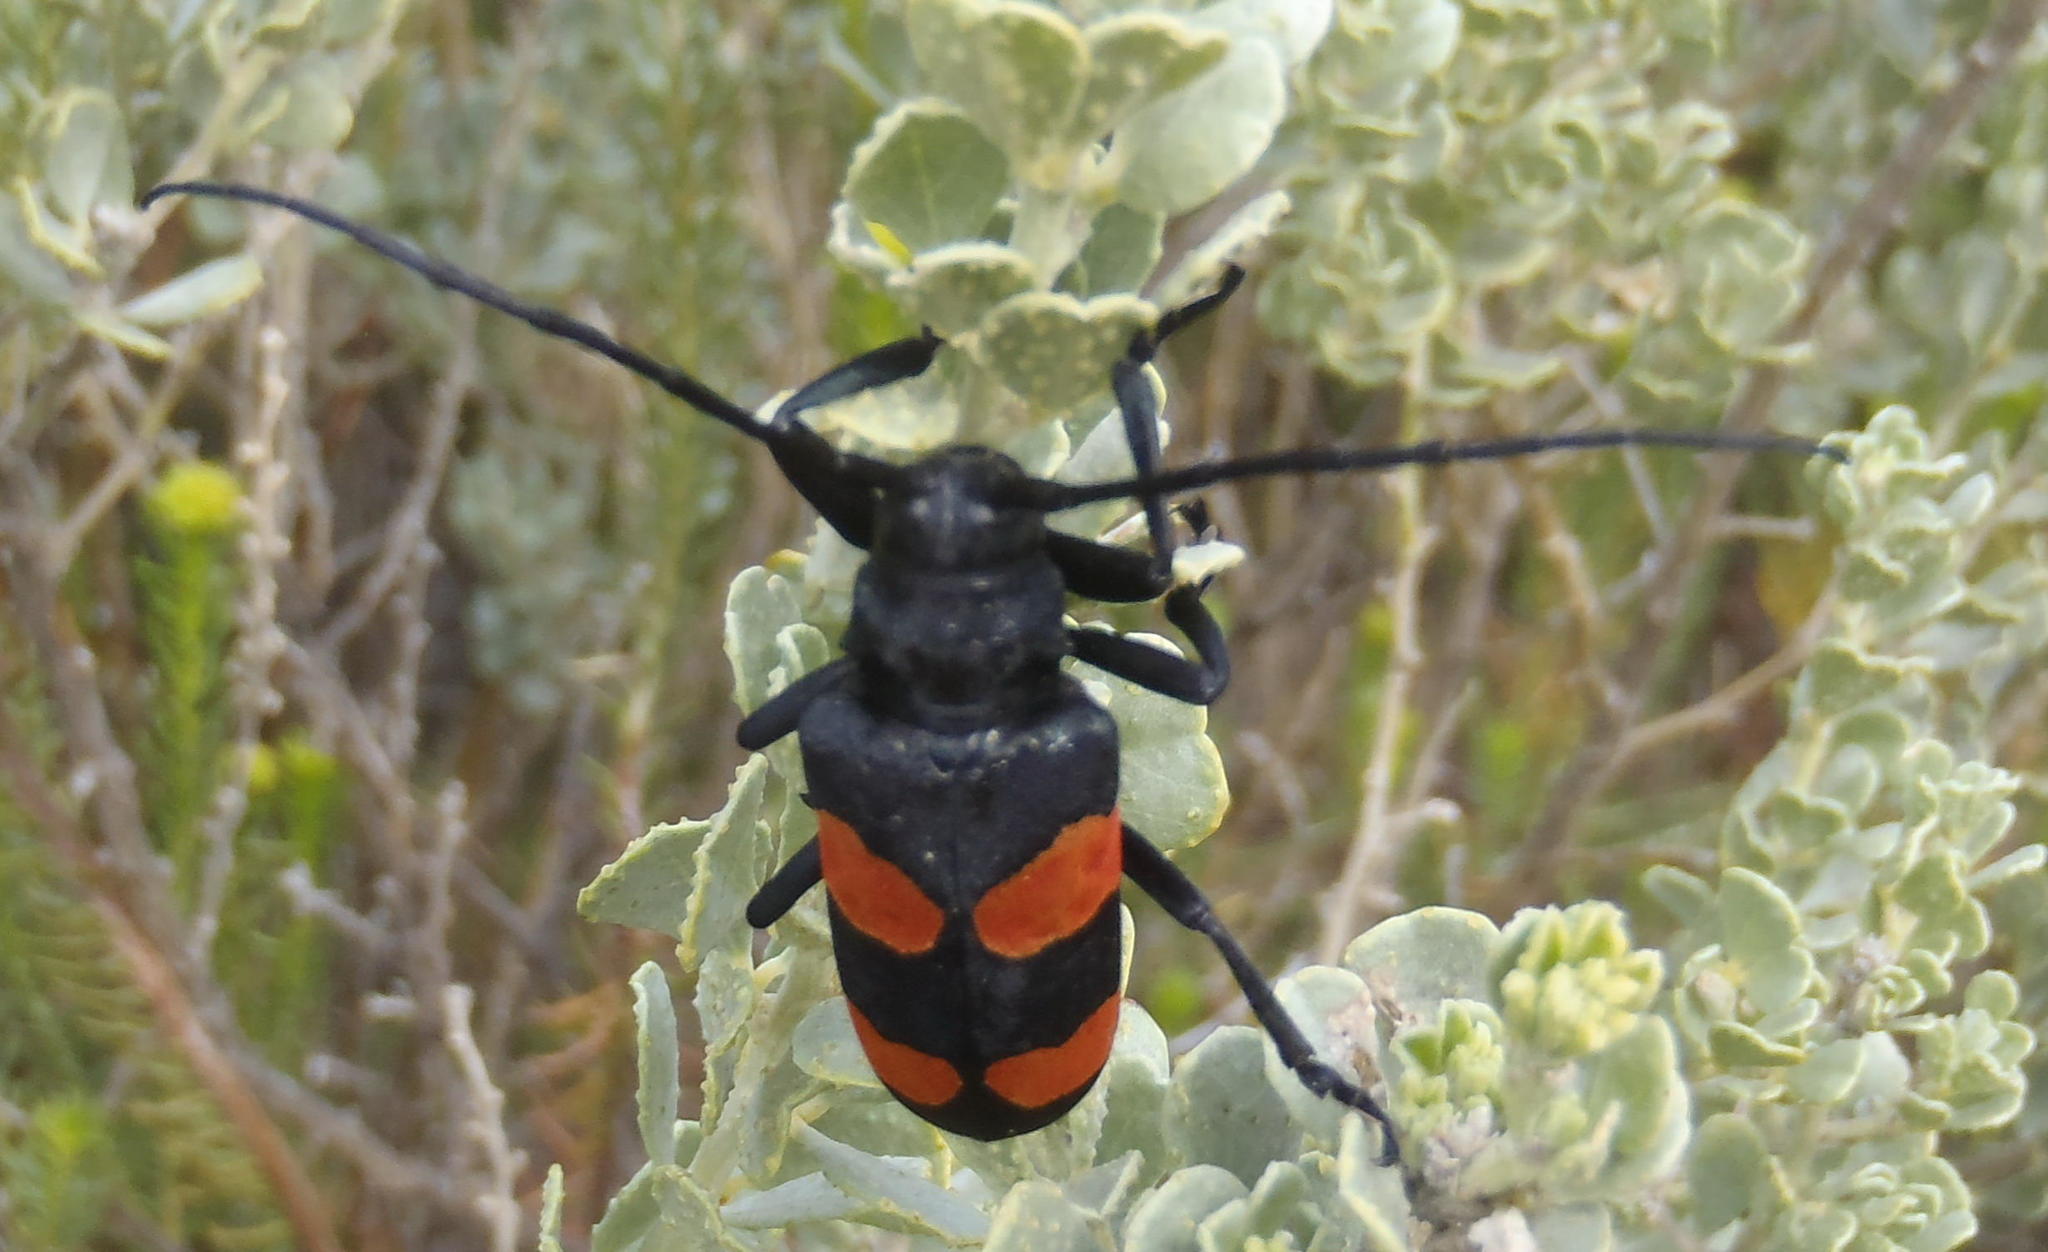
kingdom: Animalia
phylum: Arthropoda
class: Insecta
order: Coleoptera
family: Cerambycidae
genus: Ceroplesis
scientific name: Ceroplesis aethiops
